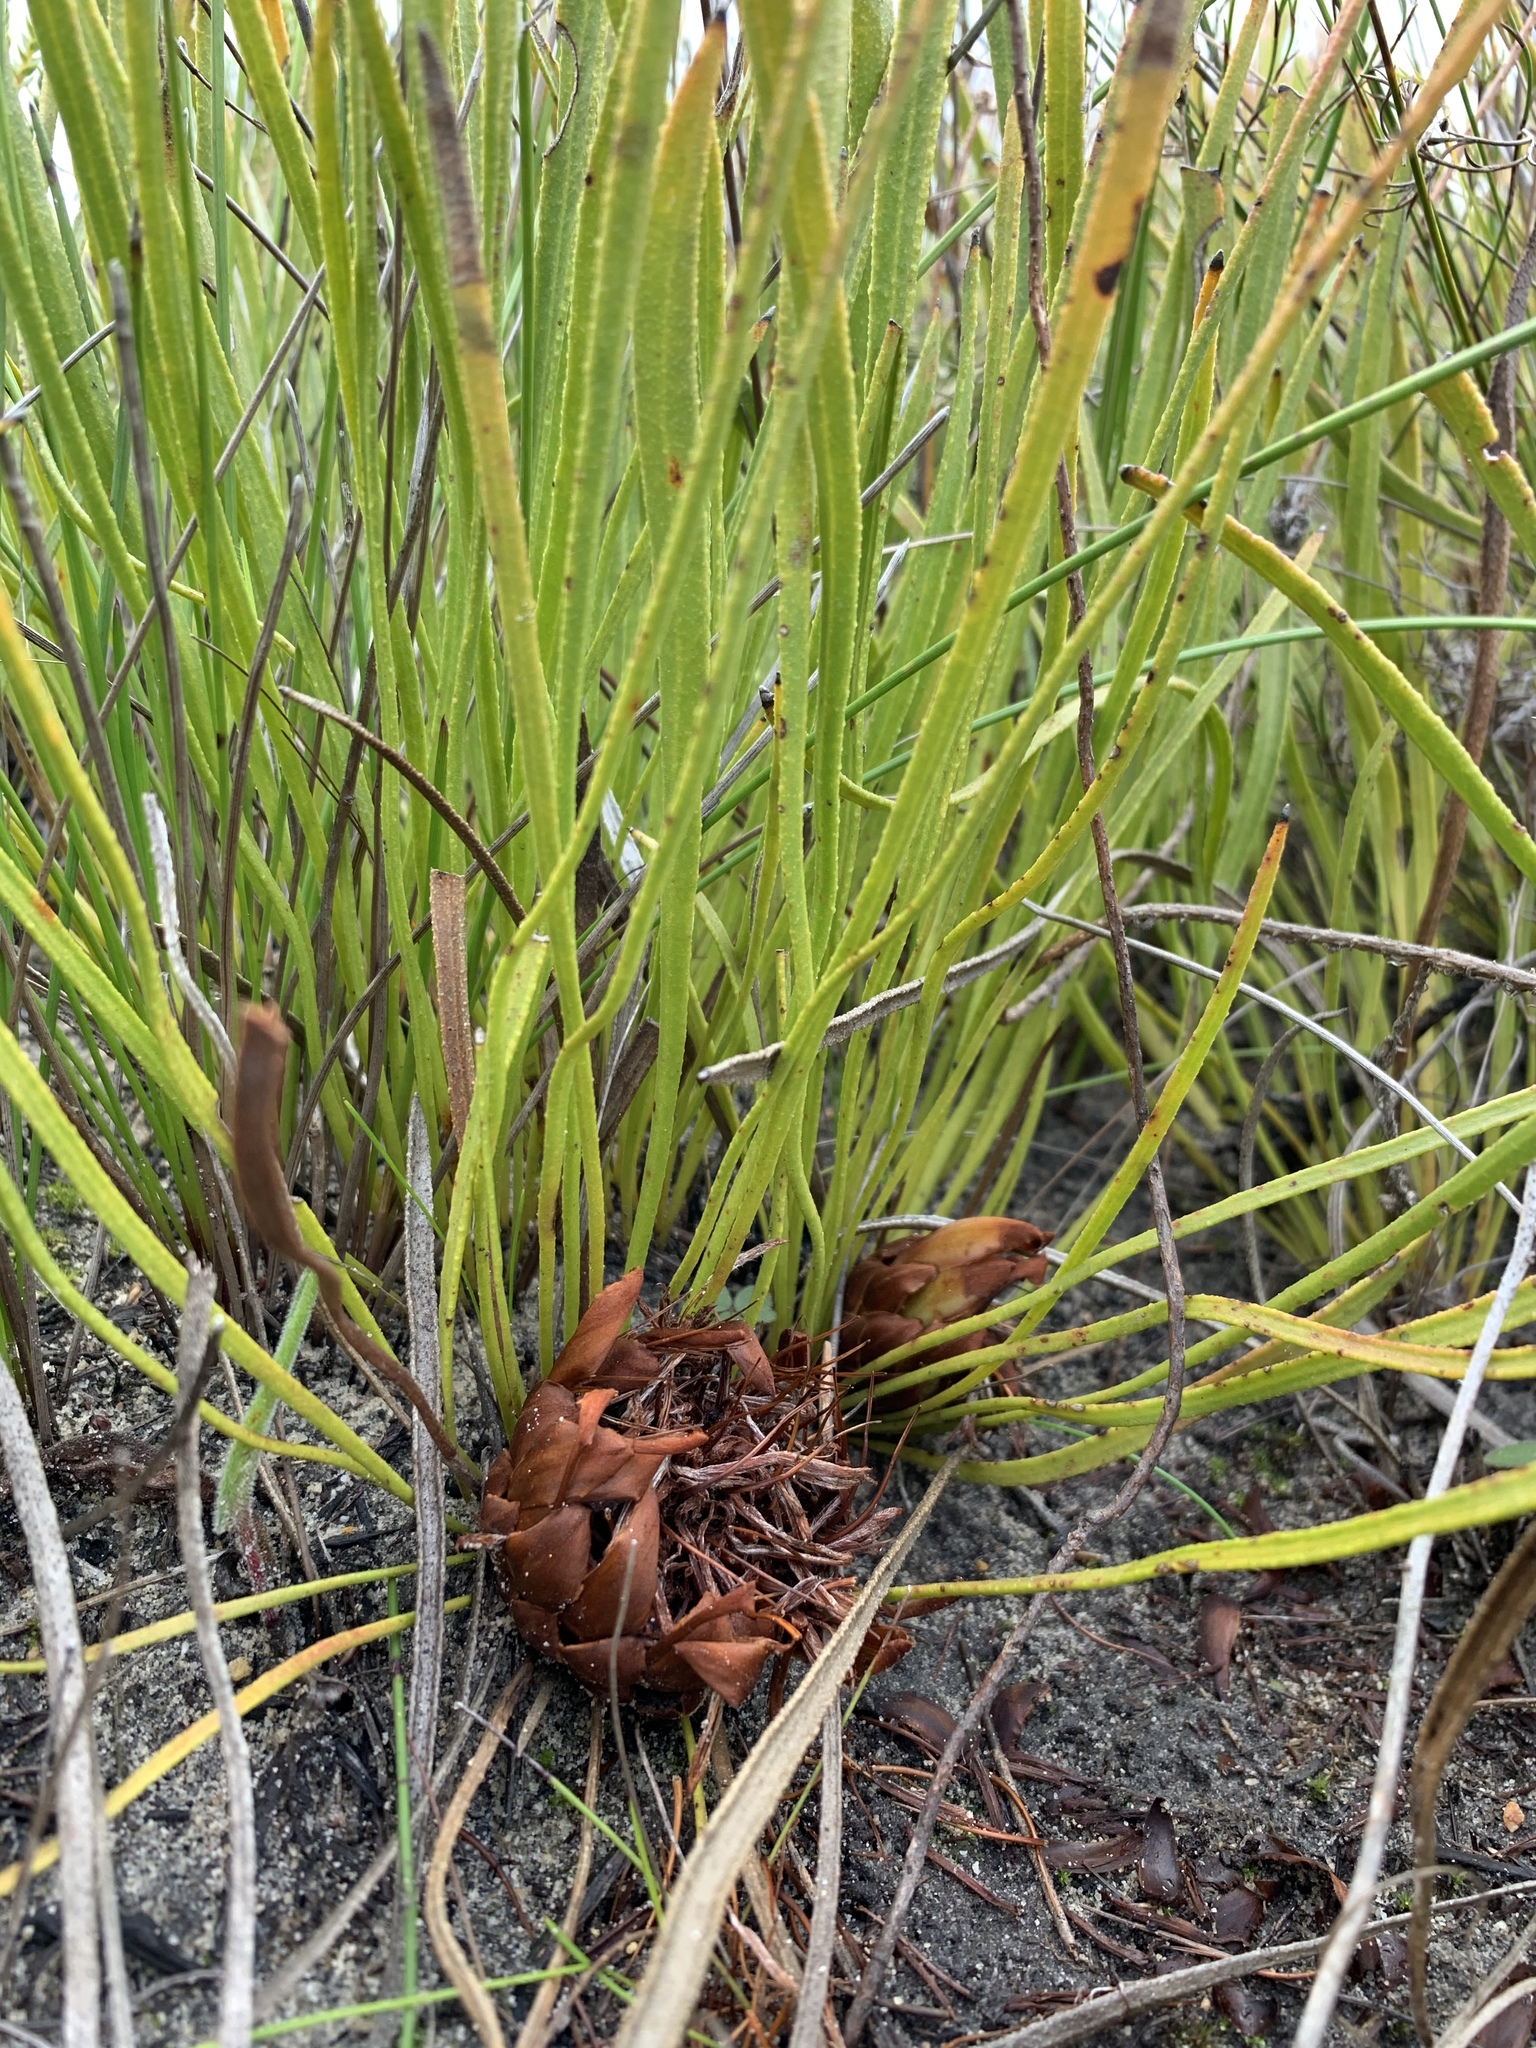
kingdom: Plantae
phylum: Tracheophyta
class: Magnoliopsida
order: Proteales
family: Proteaceae
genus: Protea
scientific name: Protea scabra
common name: Sandpaper-leaf sugarbush
